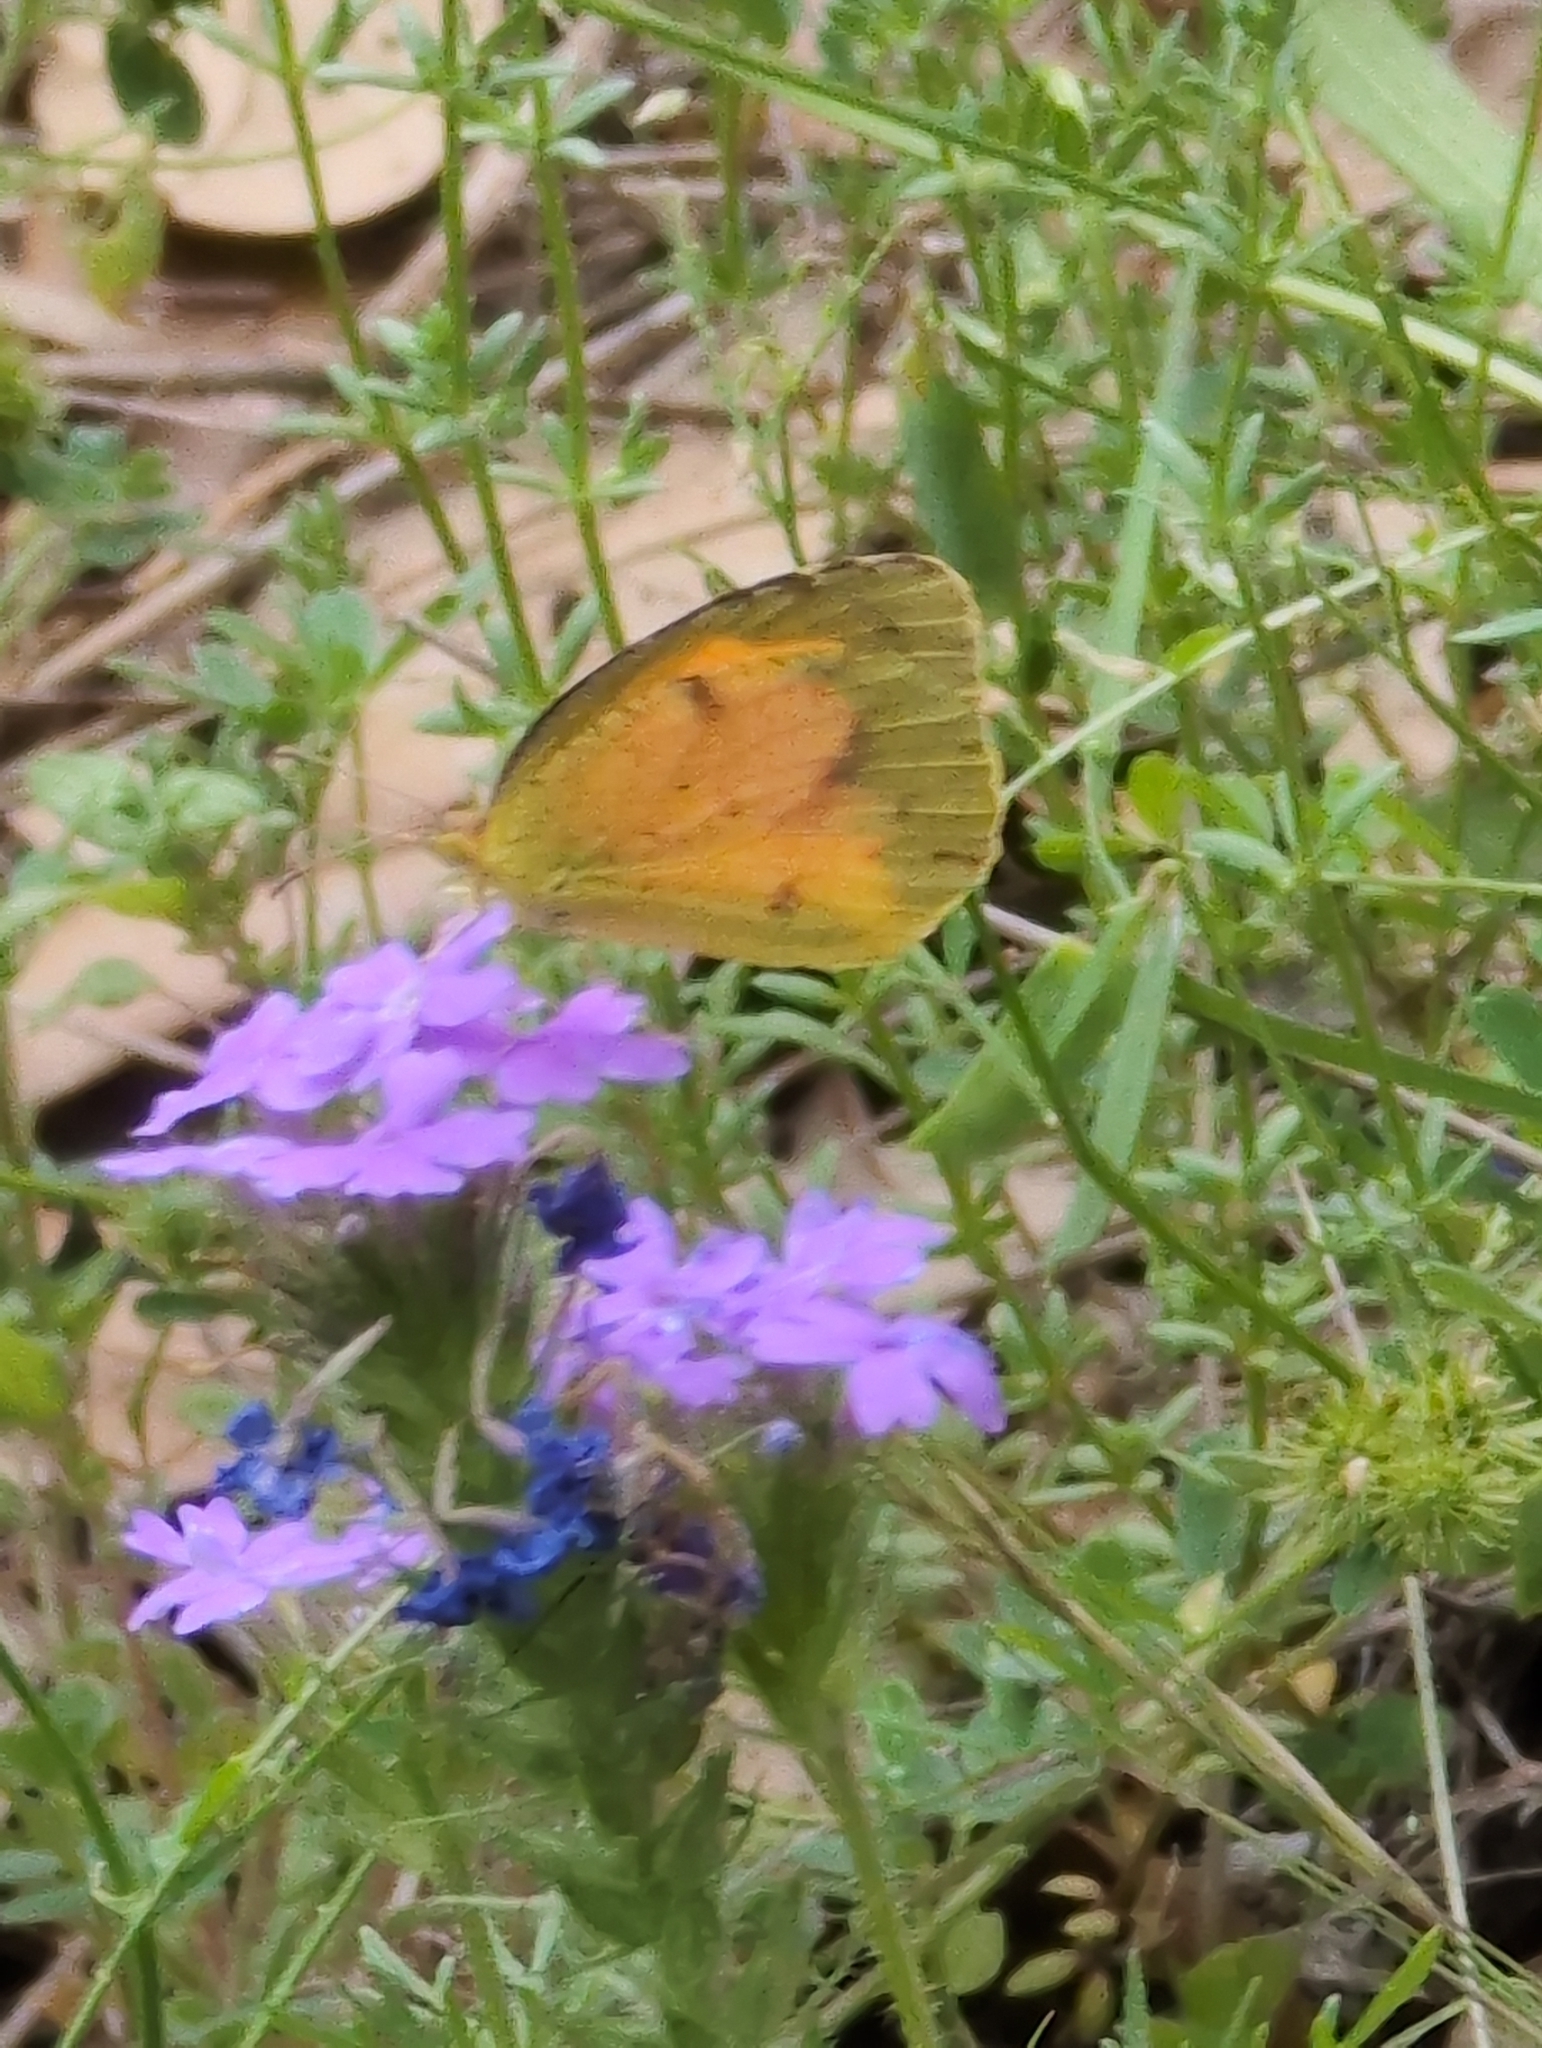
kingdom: Animalia
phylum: Arthropoda
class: Insecta
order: Lepidoptera
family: Pieridae
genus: Abaeis
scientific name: Abaeis nicippe
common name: Sleepy orange
